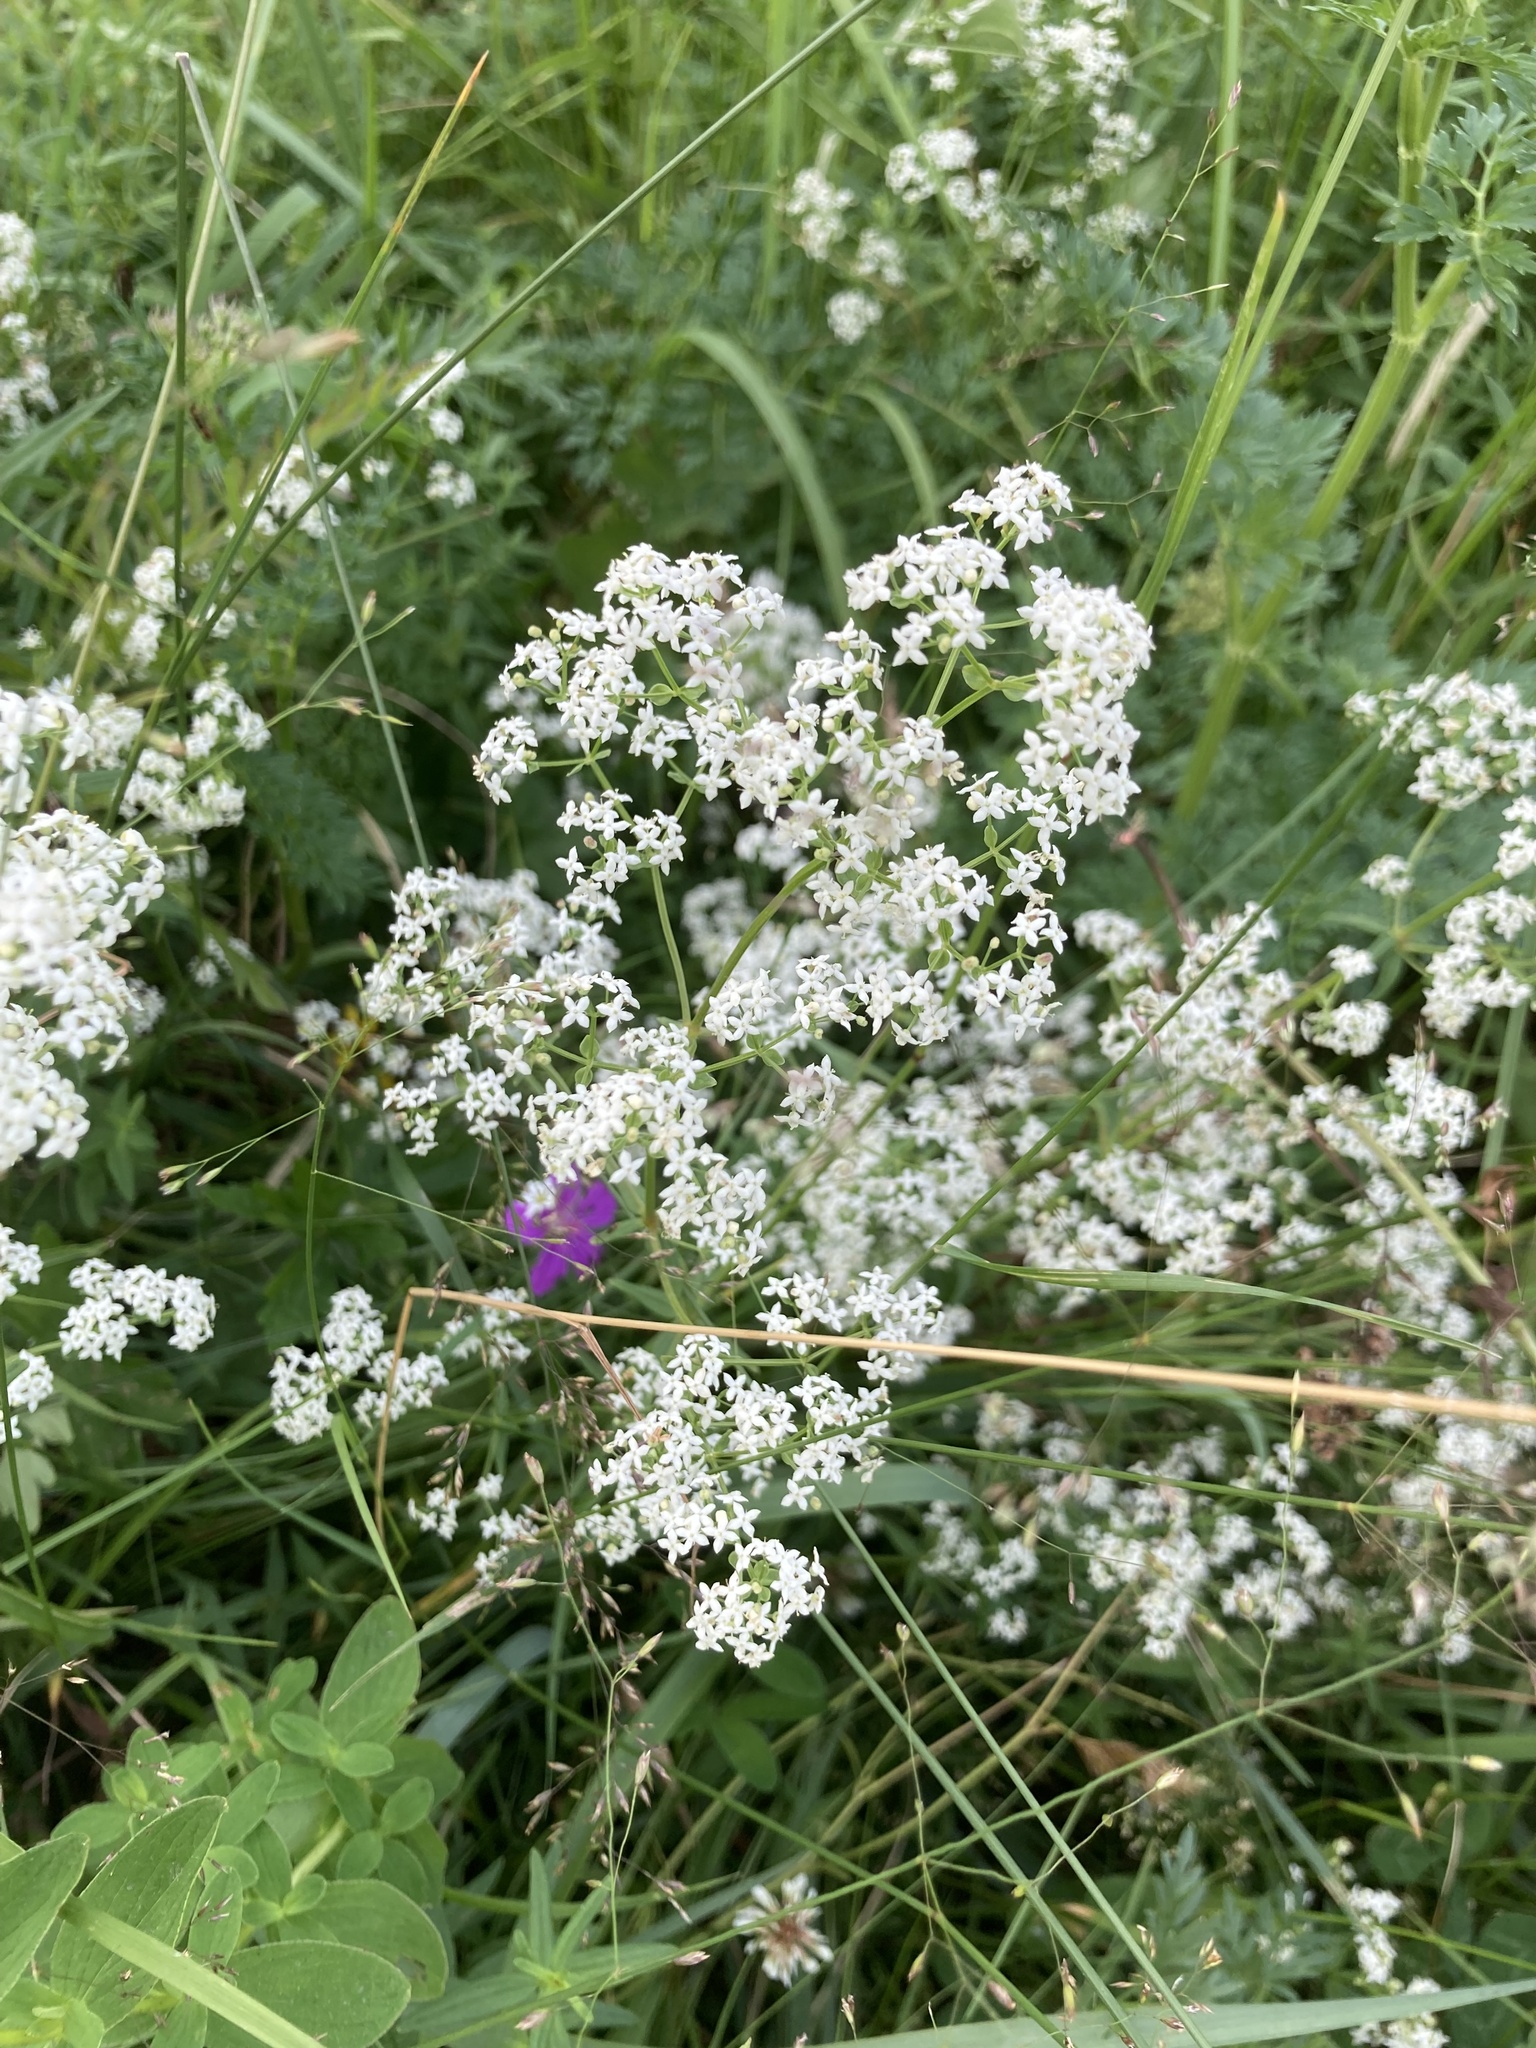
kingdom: Plantae
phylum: Tracheophyta
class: Magnoliopsida
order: Gentianales
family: Rubiaceae
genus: Galium
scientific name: Galium mollugo
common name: Hedge bedstraw
